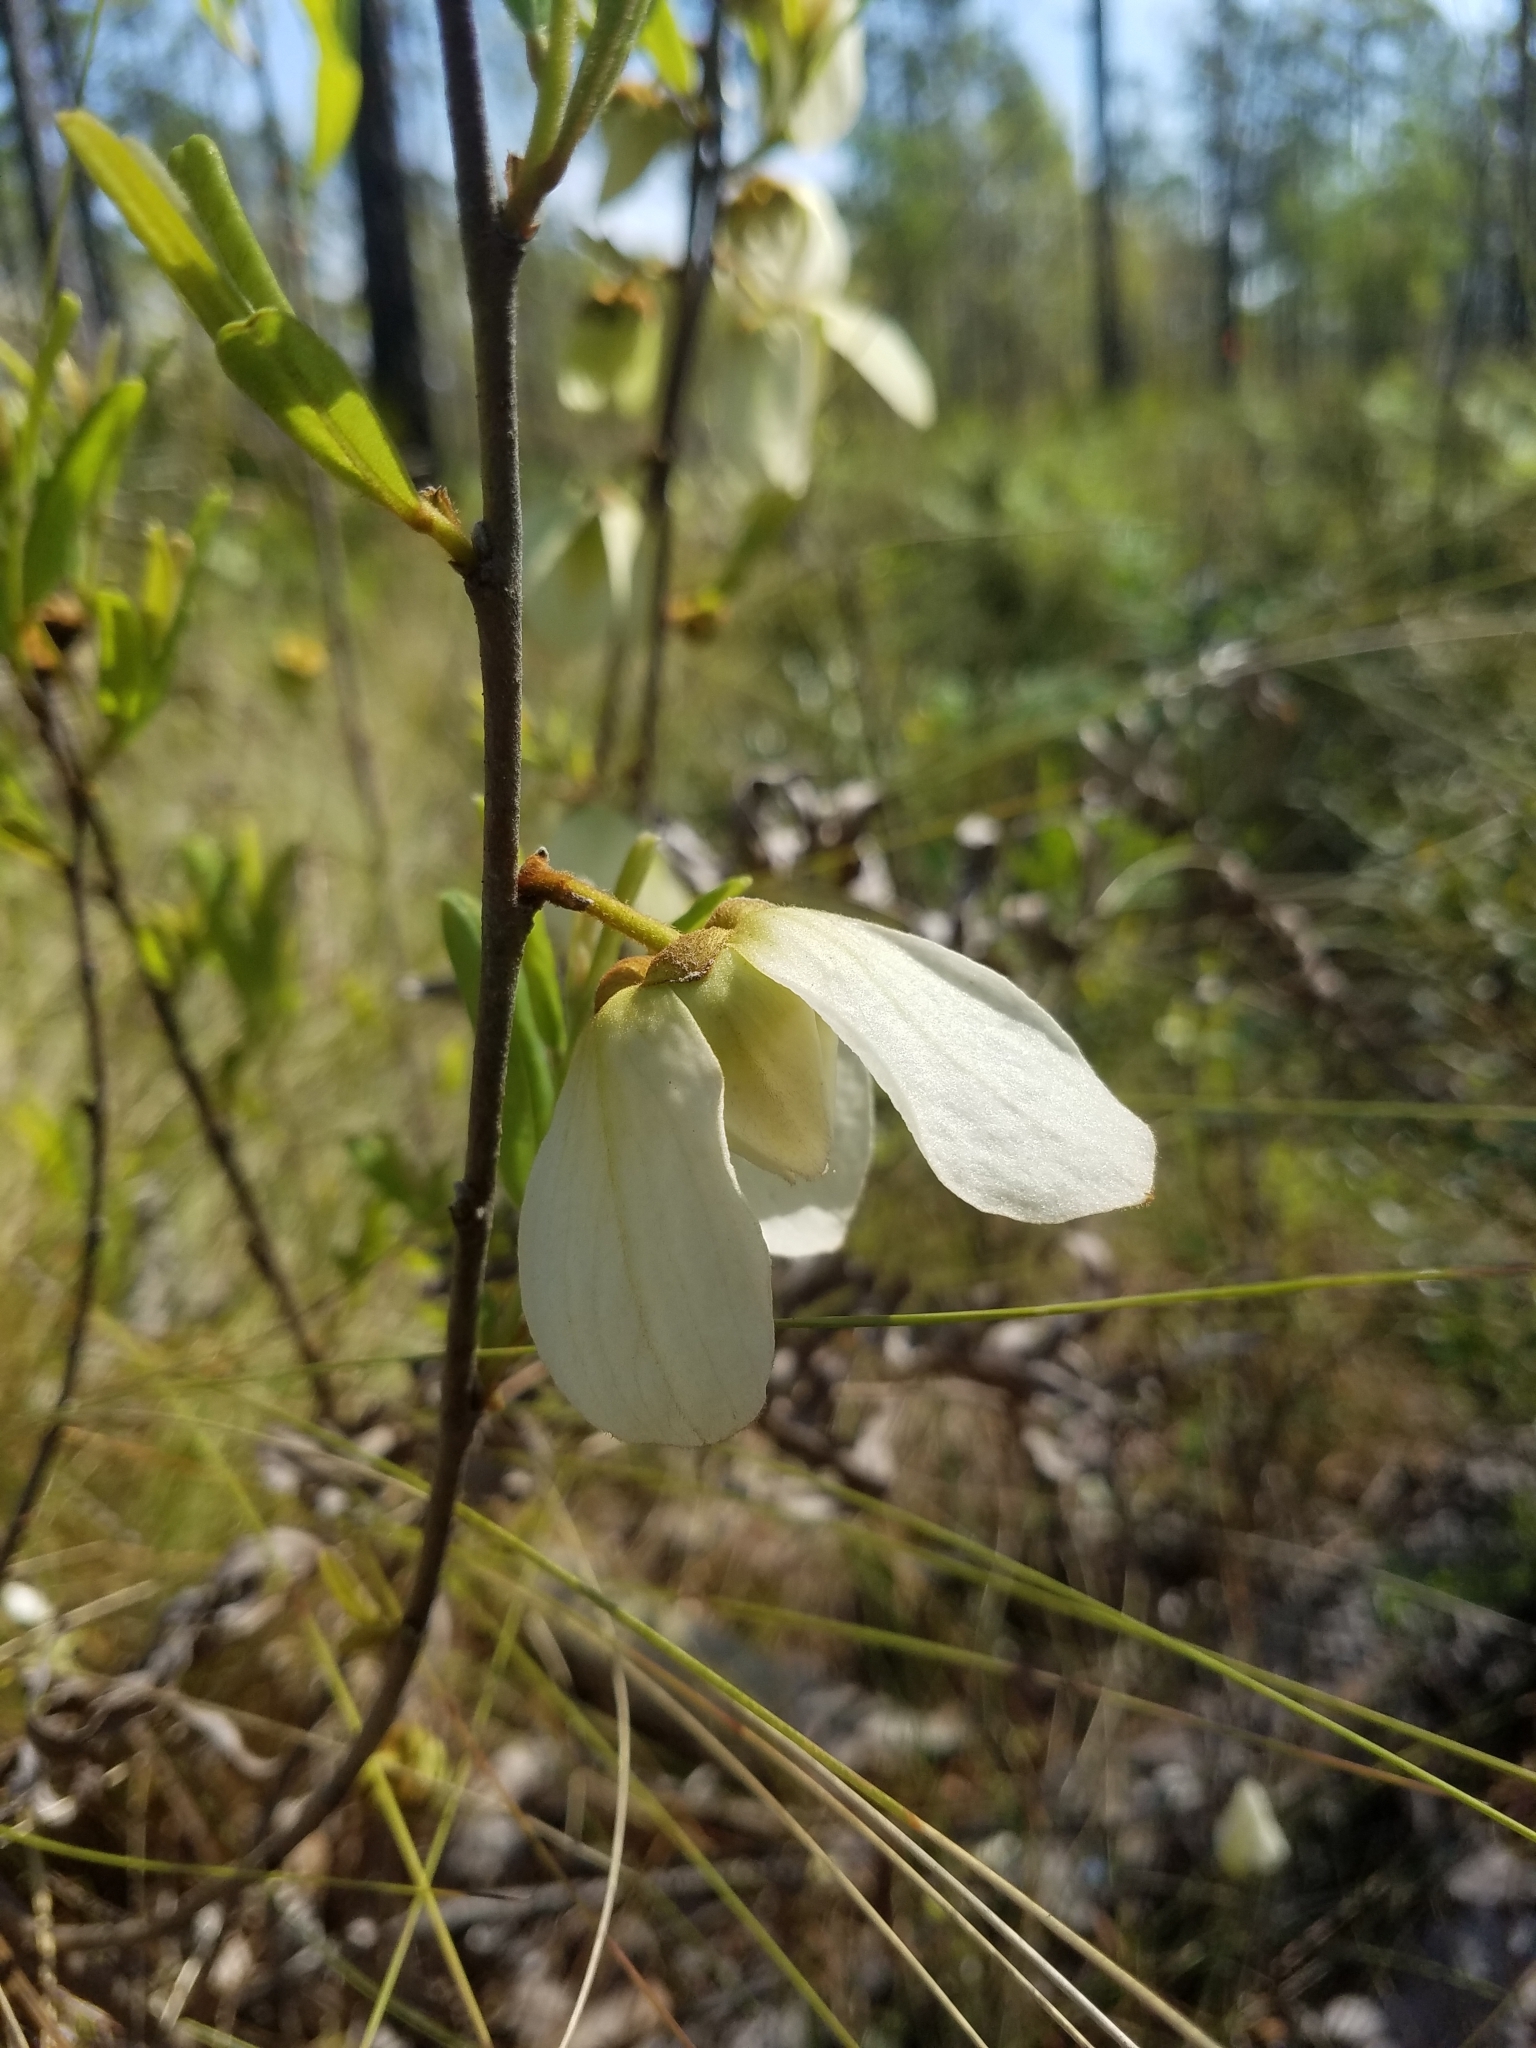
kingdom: Plantae
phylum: Tracheophyta
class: Magnoliopsida
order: Magnoliales
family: Annonaceae
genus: Asimina
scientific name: Asimina reticulata
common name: Flag pawpaw
